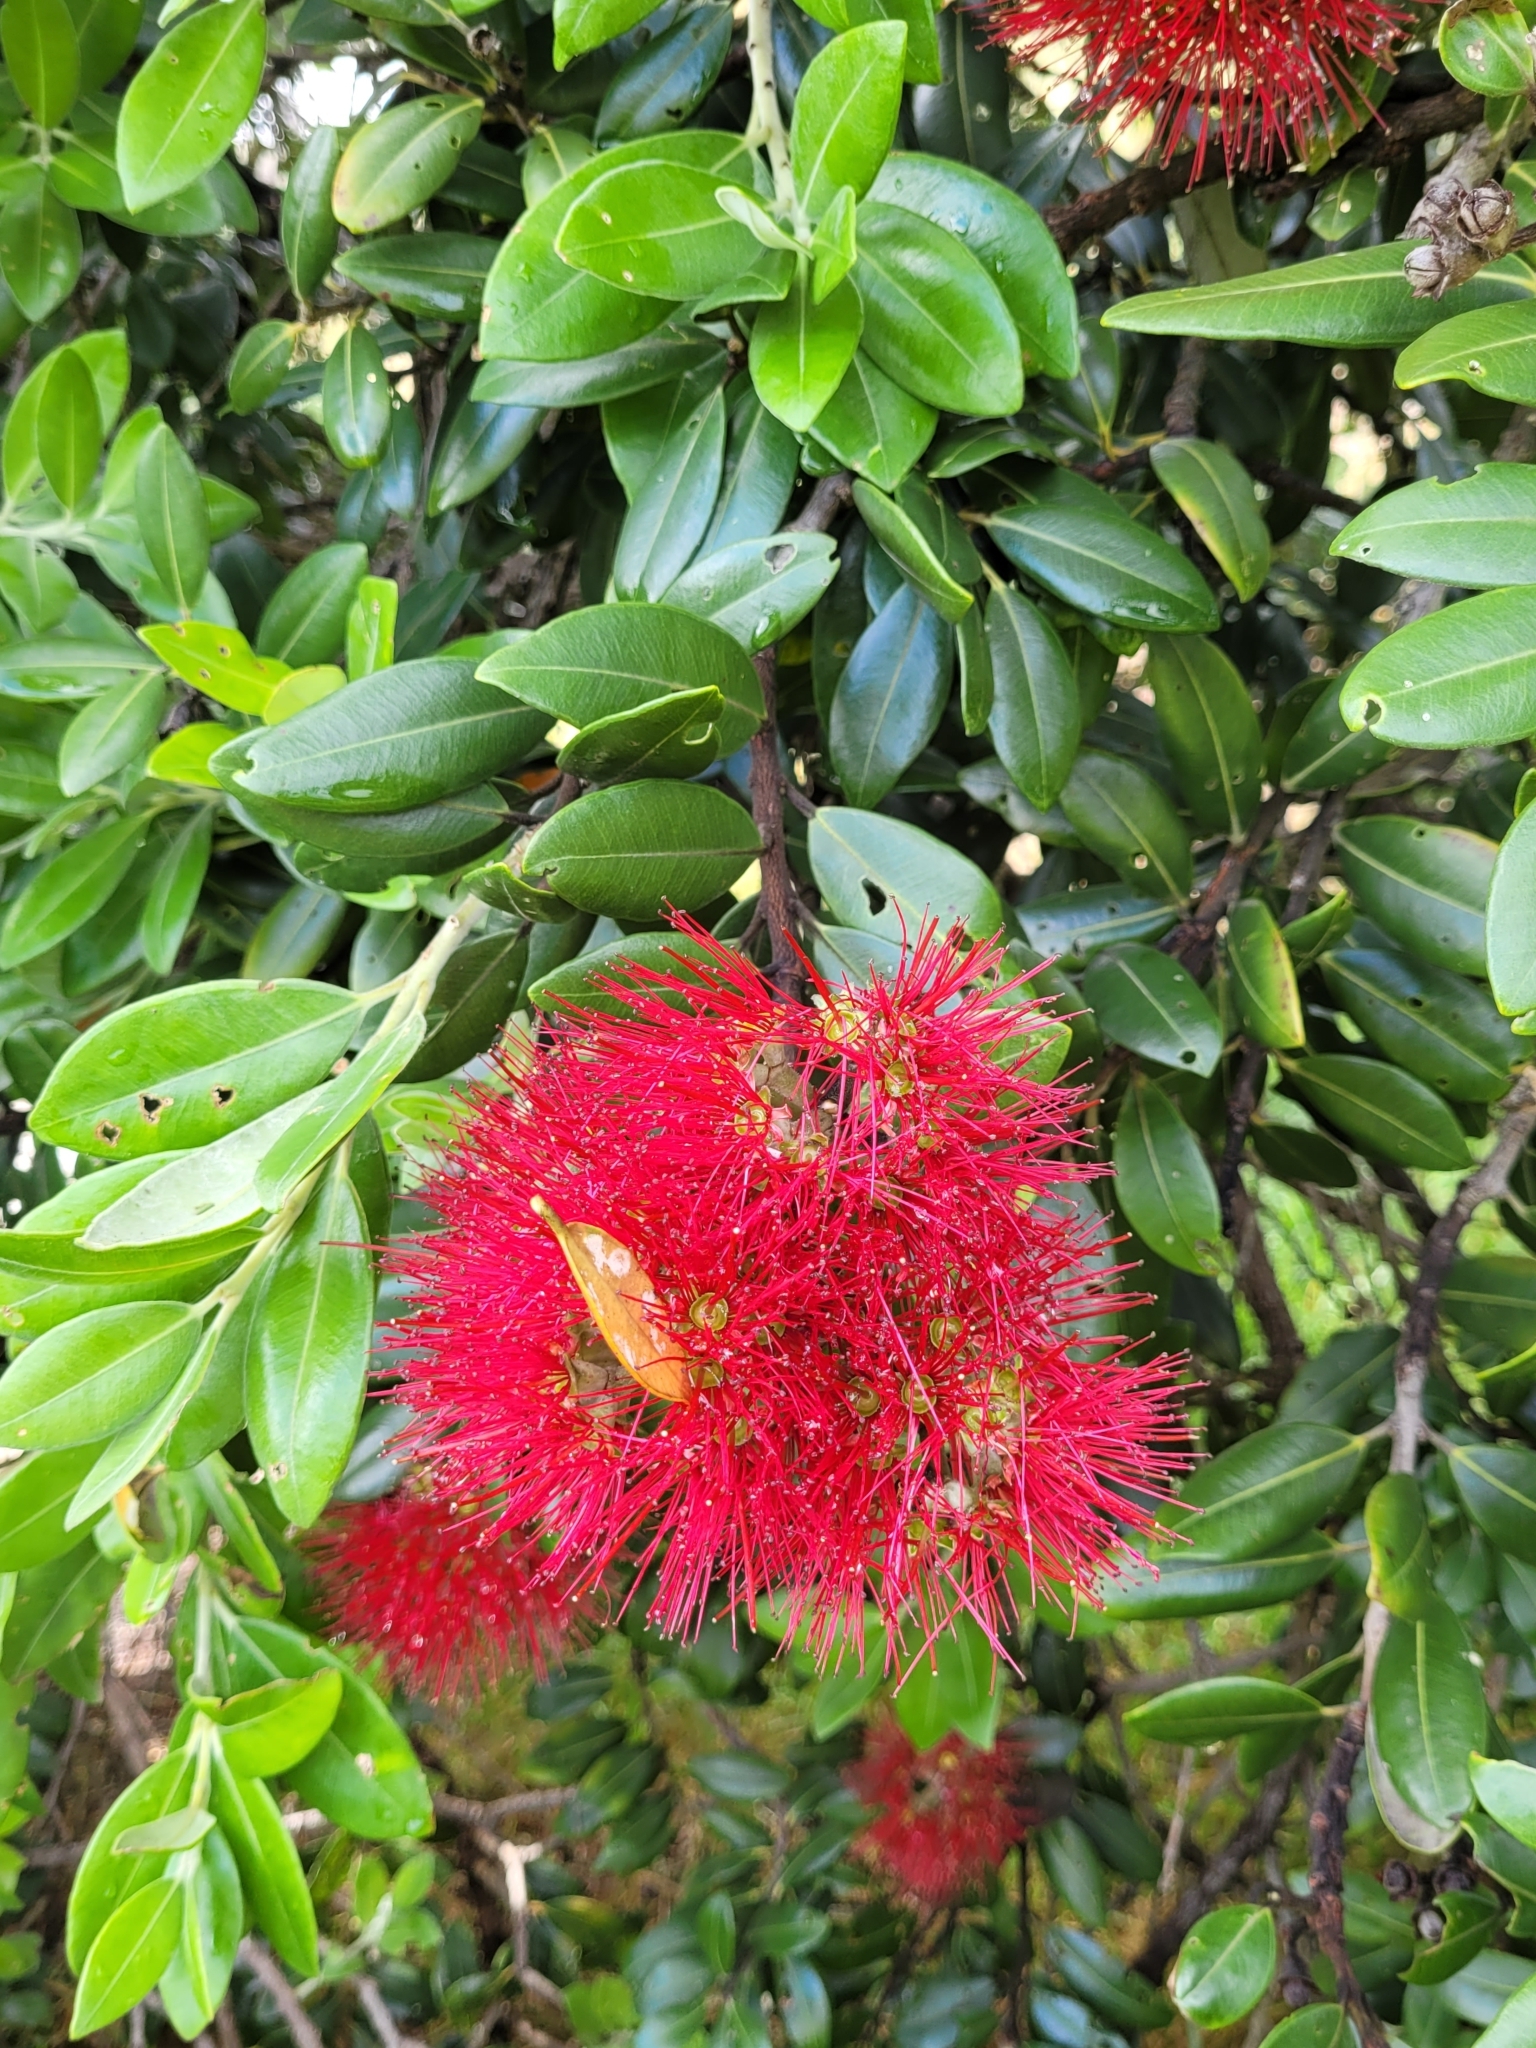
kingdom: Plantae
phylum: Tracheophyta
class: Magnoliopsida
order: Myrtales
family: Myrtaceae
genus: Metrosideros
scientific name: Metrosideros excelsa
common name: New zealand christmastree
